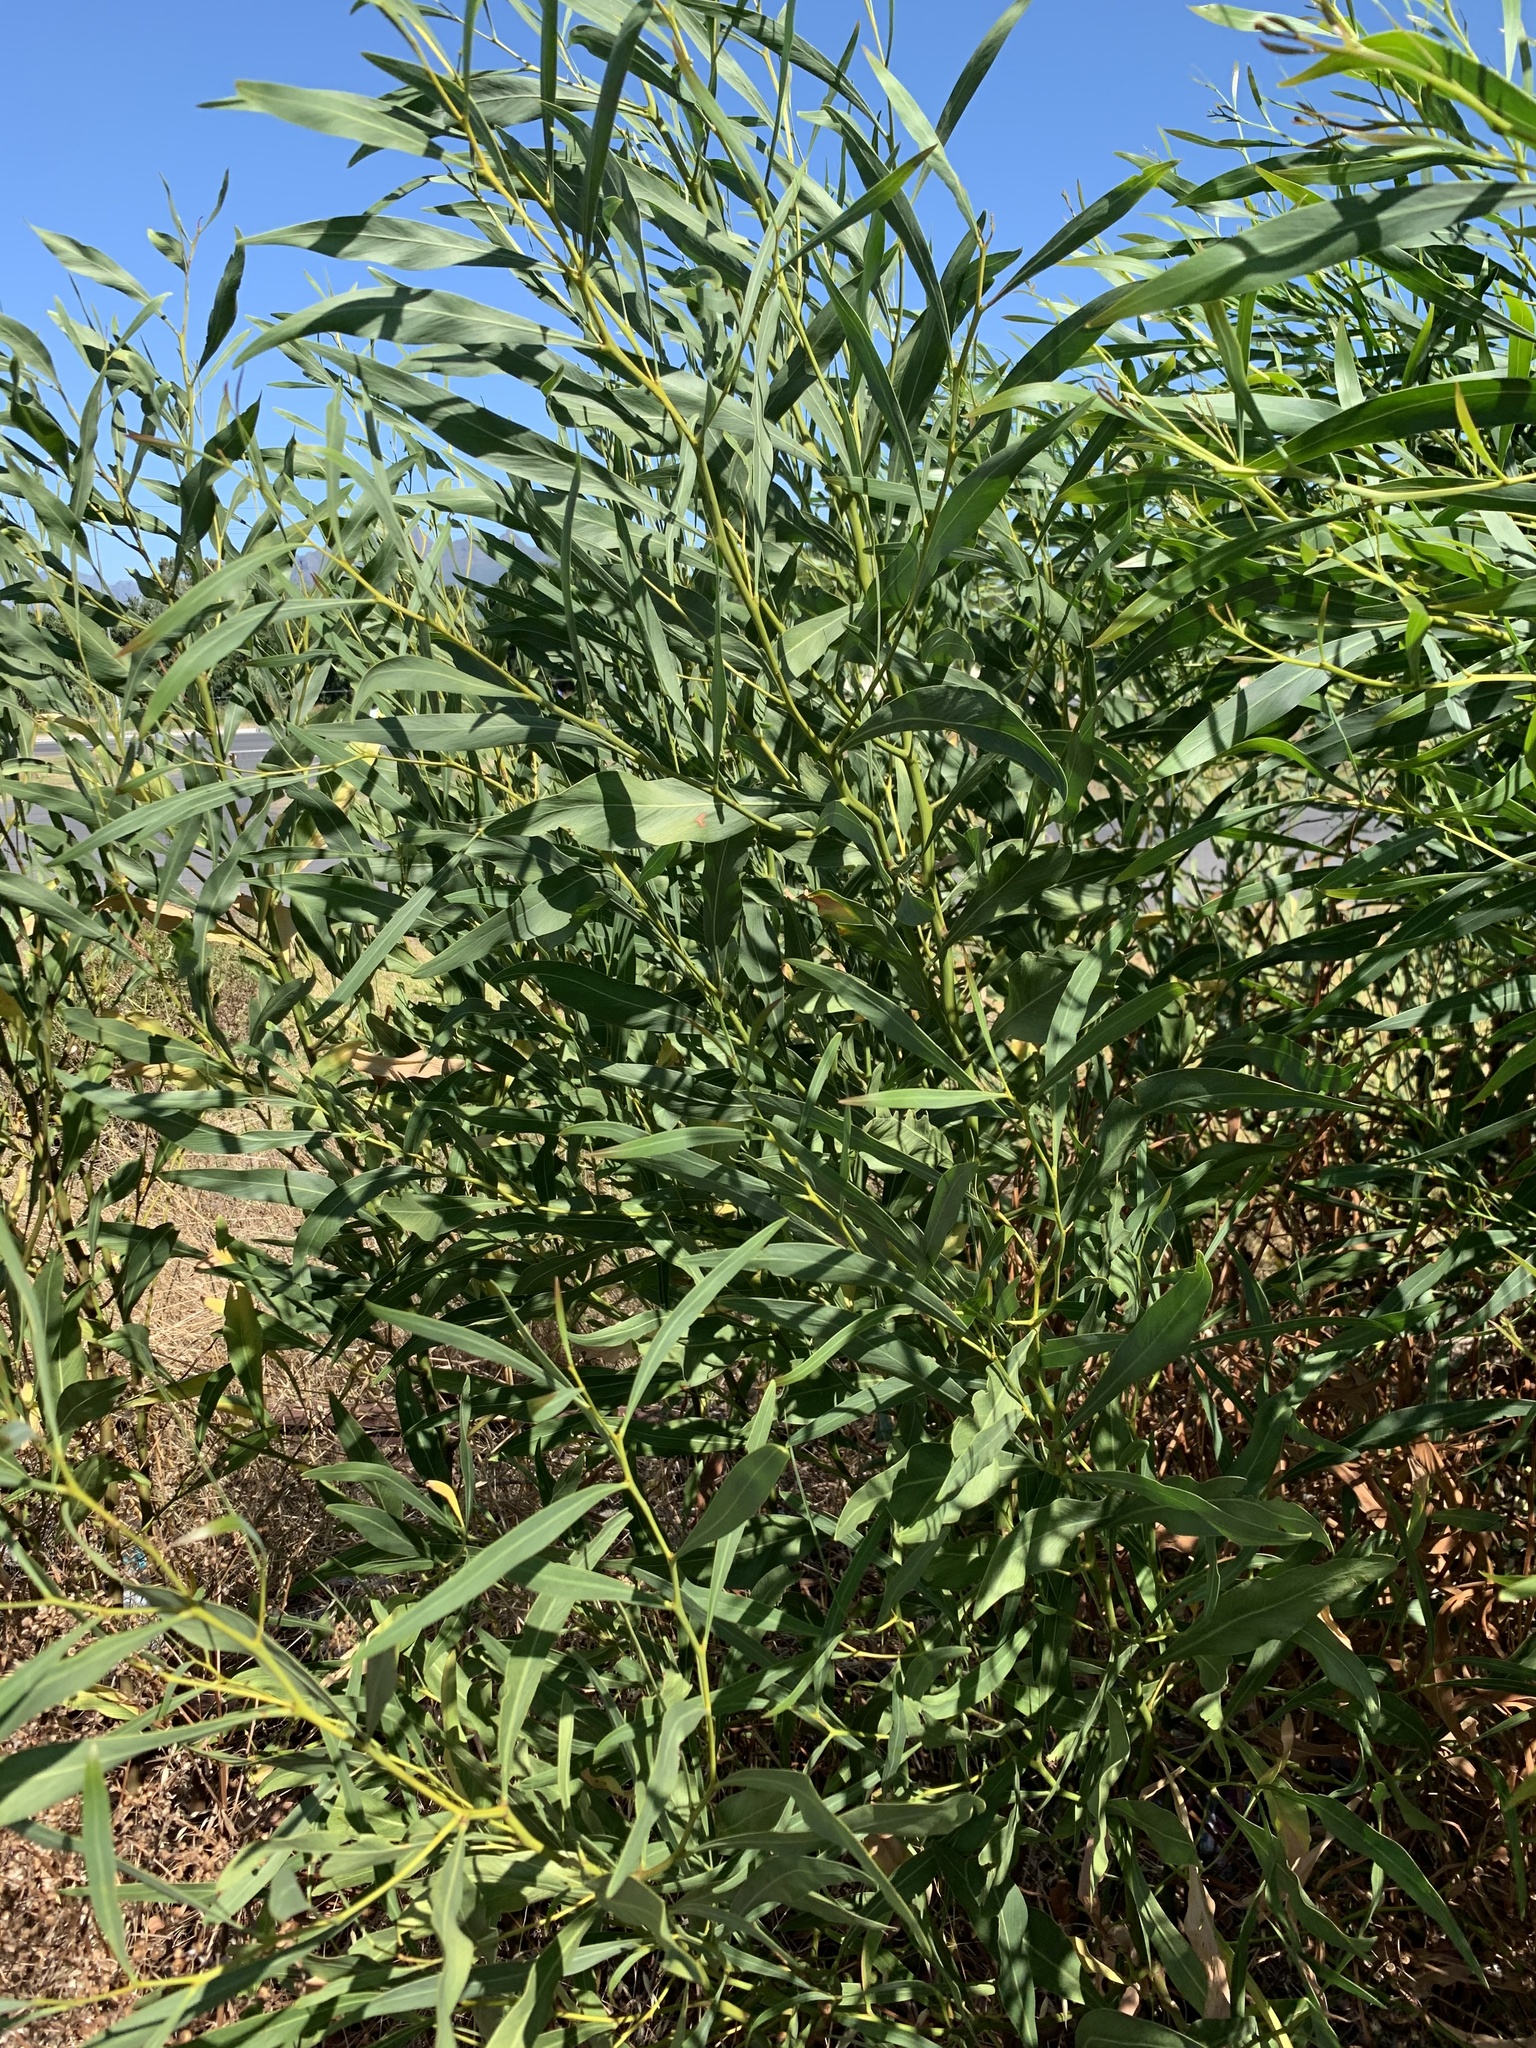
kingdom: Plantae
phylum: Tracheophyta
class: Magnoliopsida
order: Fabales
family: Fabaceae
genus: Acacia
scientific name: Acacia saligna
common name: Orange wattle
